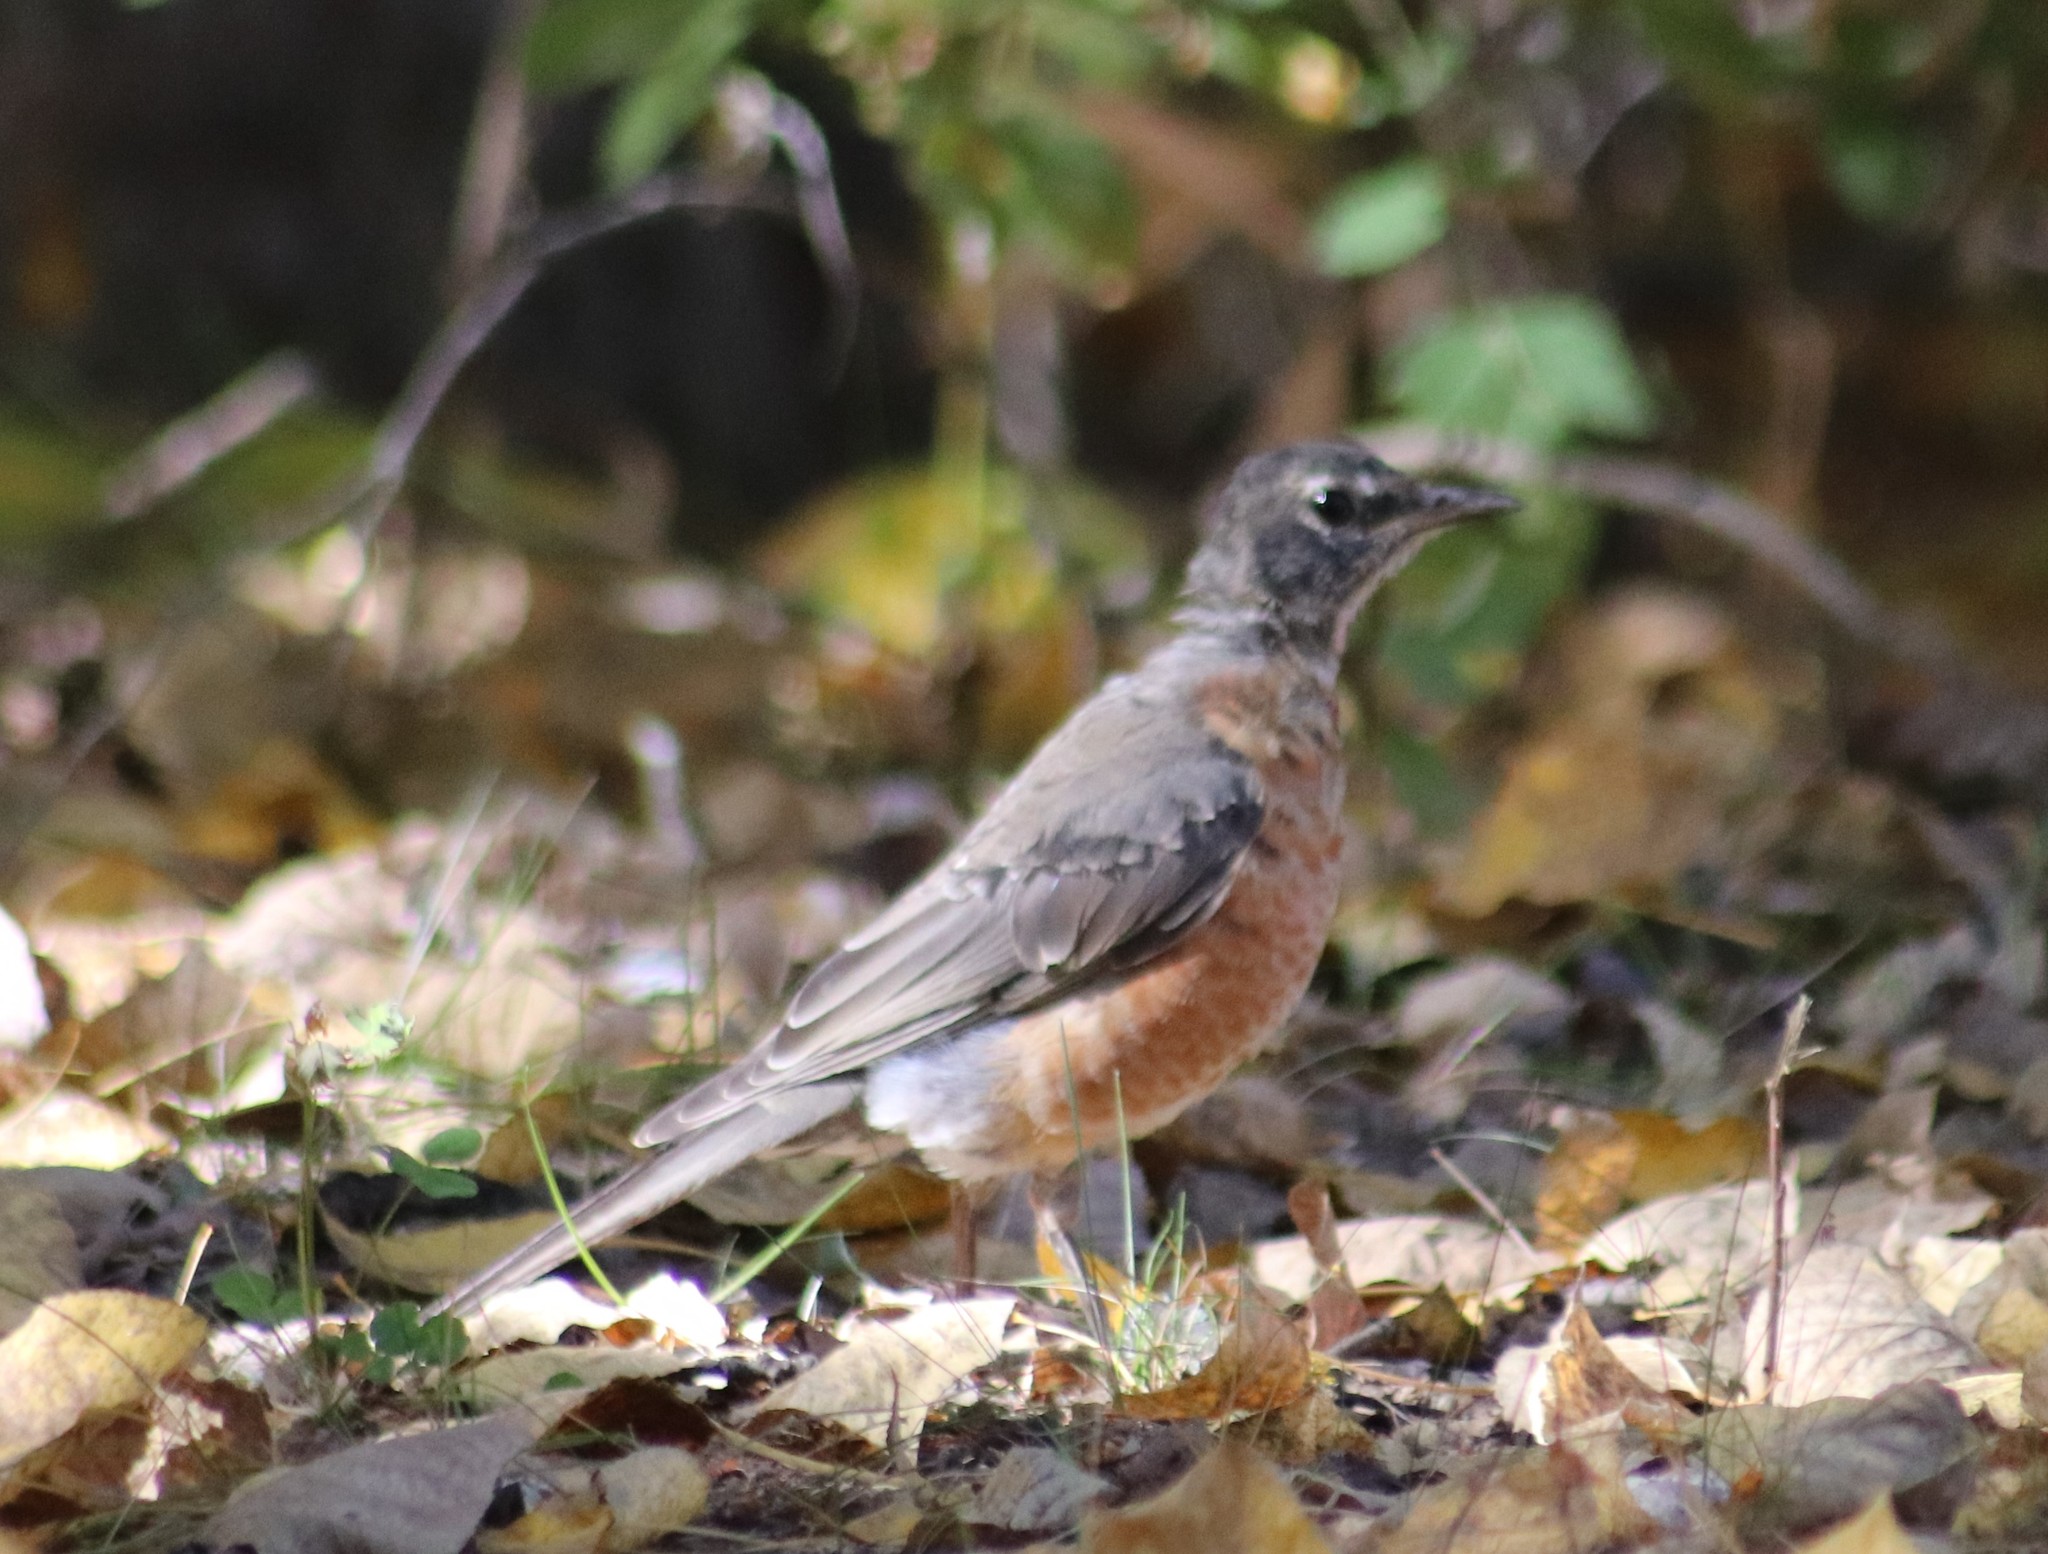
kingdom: Animalia
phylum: Chordata
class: Aves
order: Passeriformes
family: Turdidae
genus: Turdus
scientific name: Turdus migratorius
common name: American robin
